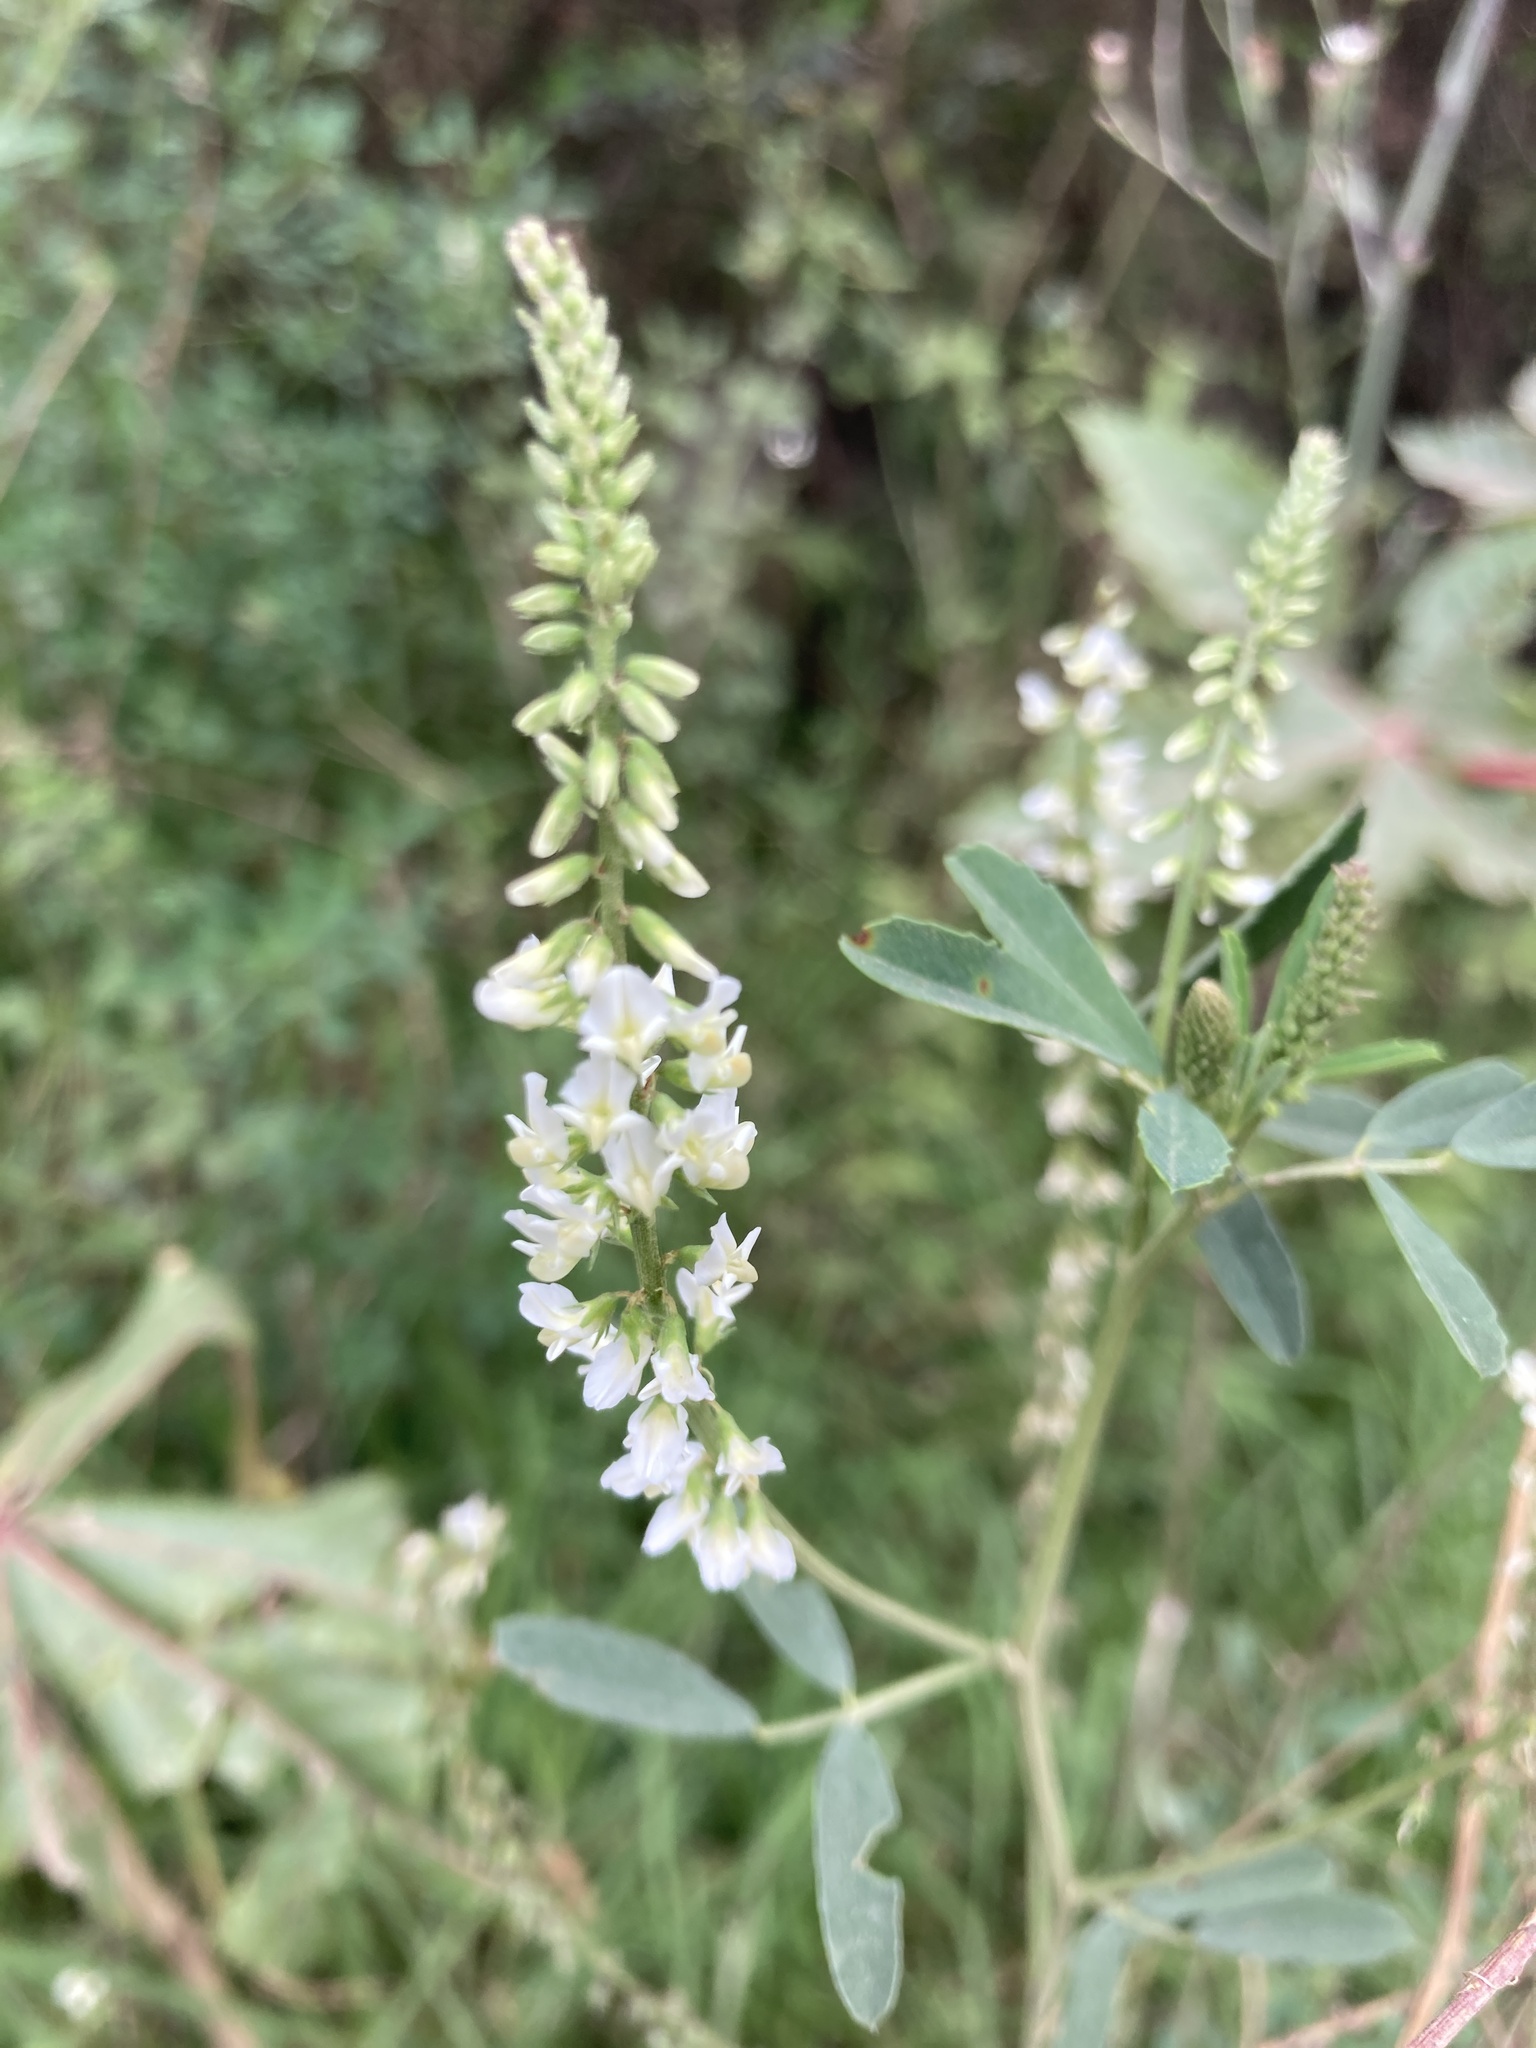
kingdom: Plantae
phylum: Tracheophyta
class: Magnoliopsida
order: Fabales
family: Fabaceae
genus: Melilotus
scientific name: Melilotus albus
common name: White melilot
